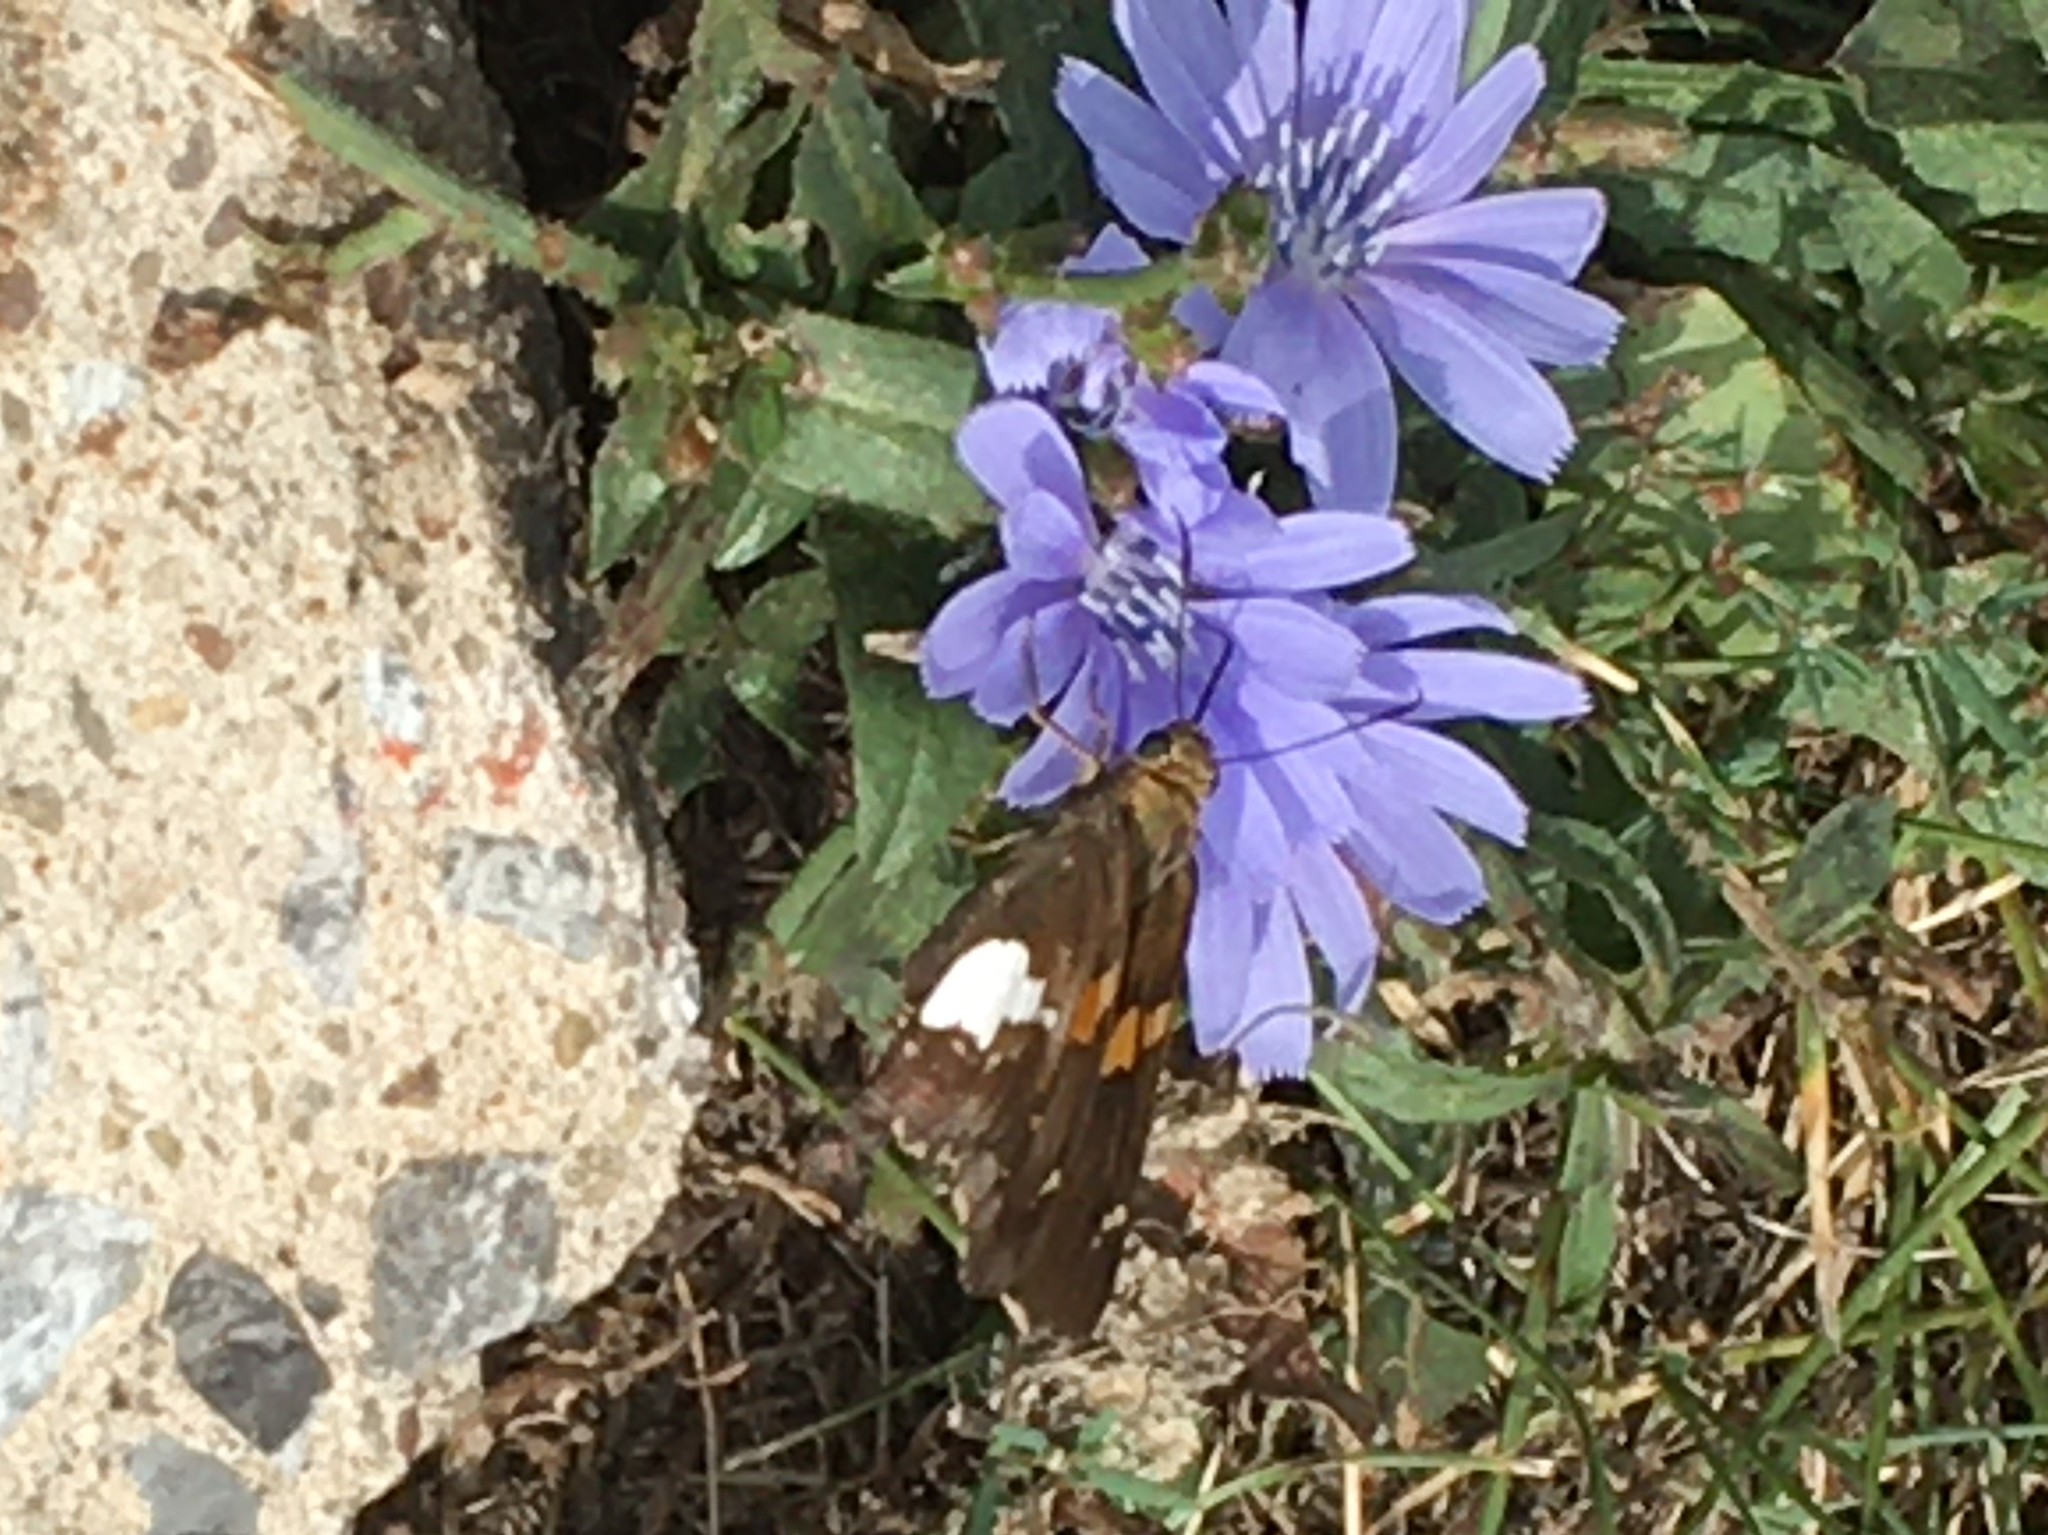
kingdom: Animalia
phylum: Arthropoda
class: Insecta
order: Lepidoptera
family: Hesperiidae
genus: Epargyreus
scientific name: Epargyreus clarus
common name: Silver-spotted skipper
